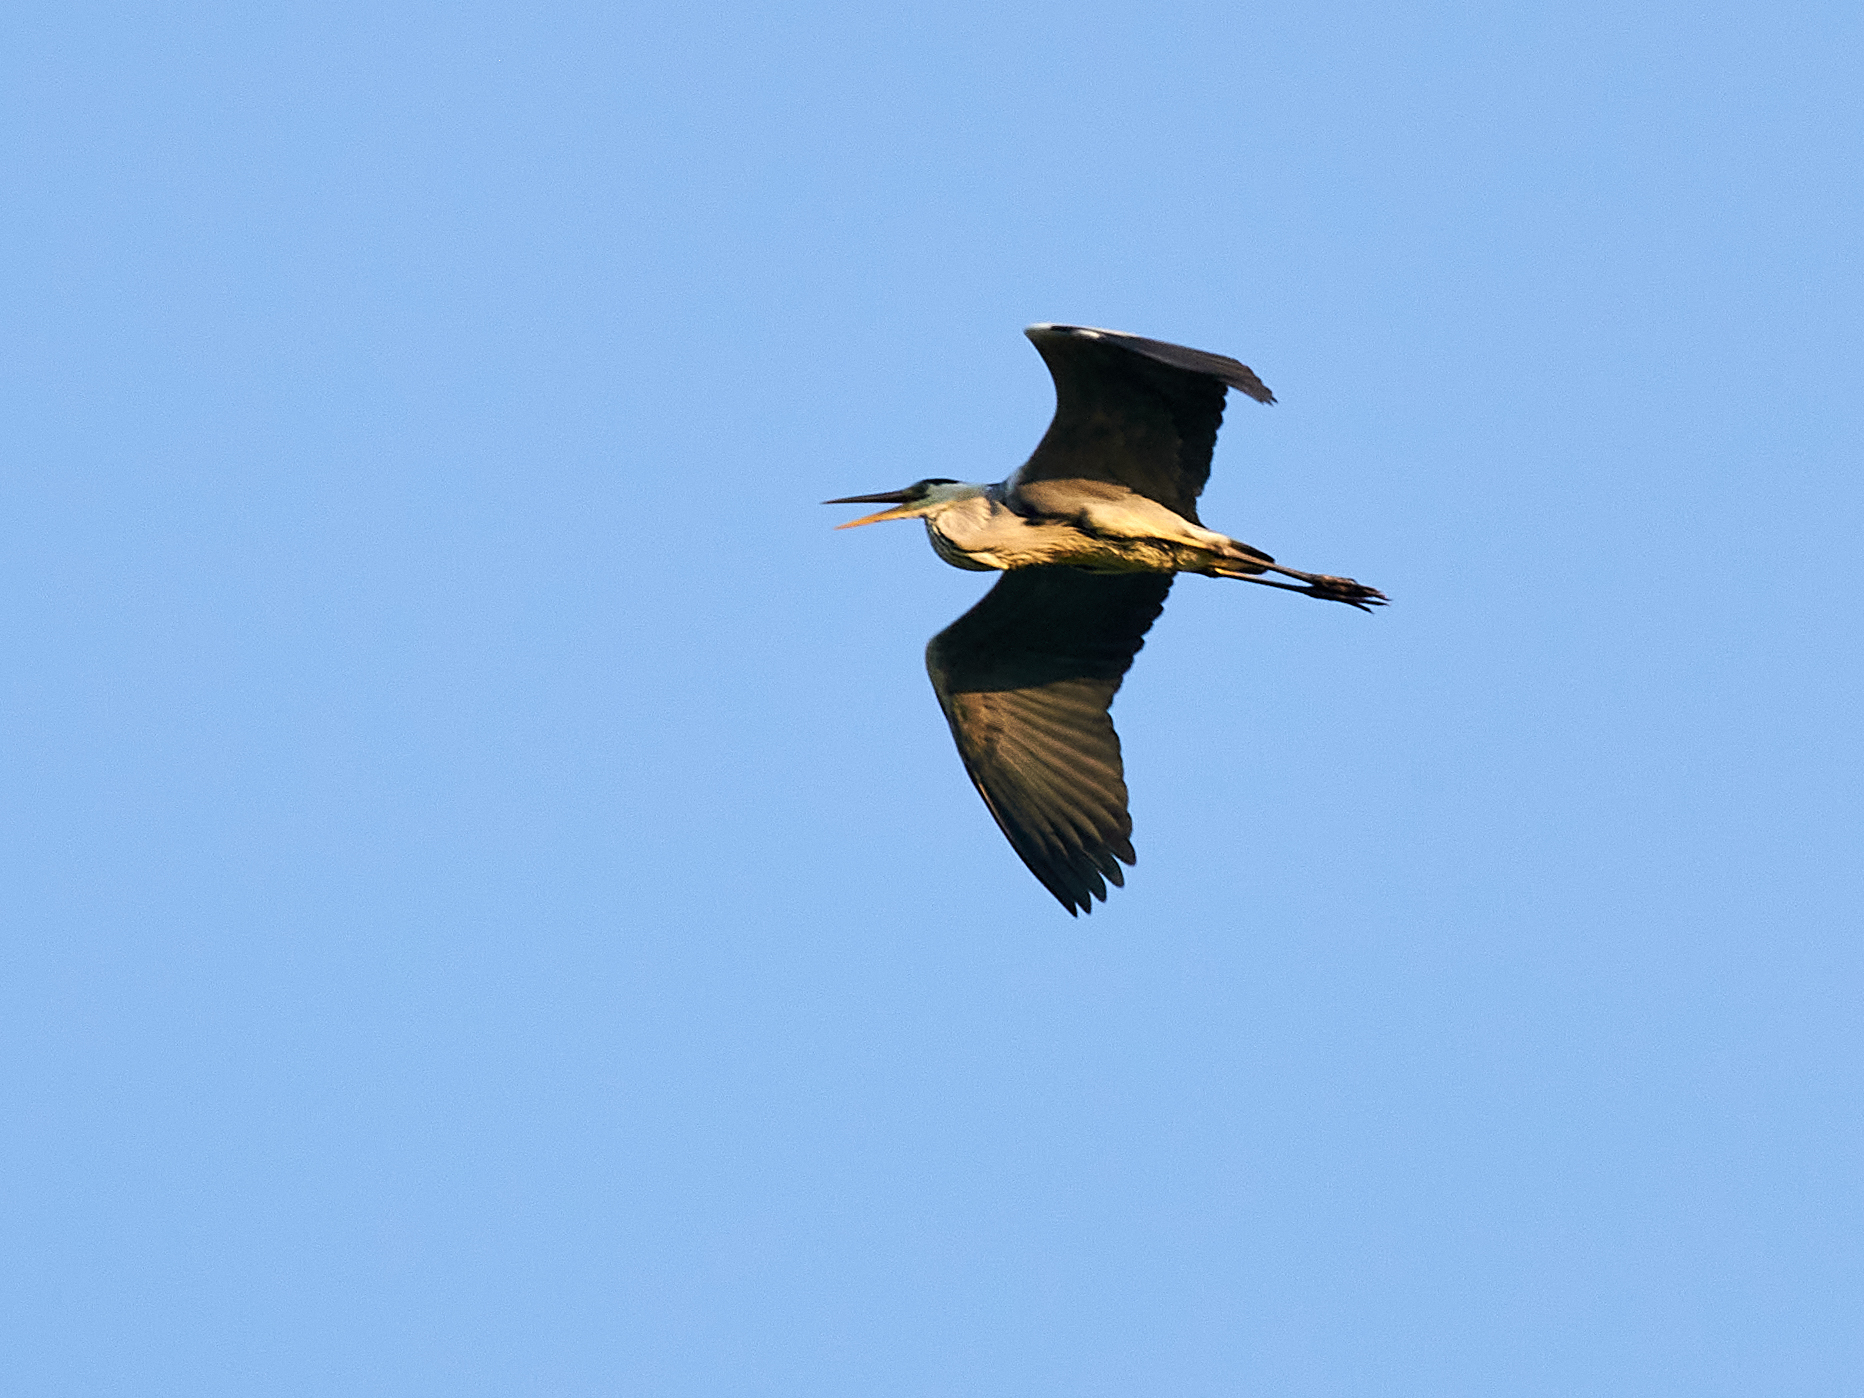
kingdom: Animalia
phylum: Chordata
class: Aves
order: Pelecaniformes
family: Ardeidae
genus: Ardea
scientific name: Ardea cinerea
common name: Grey heron
